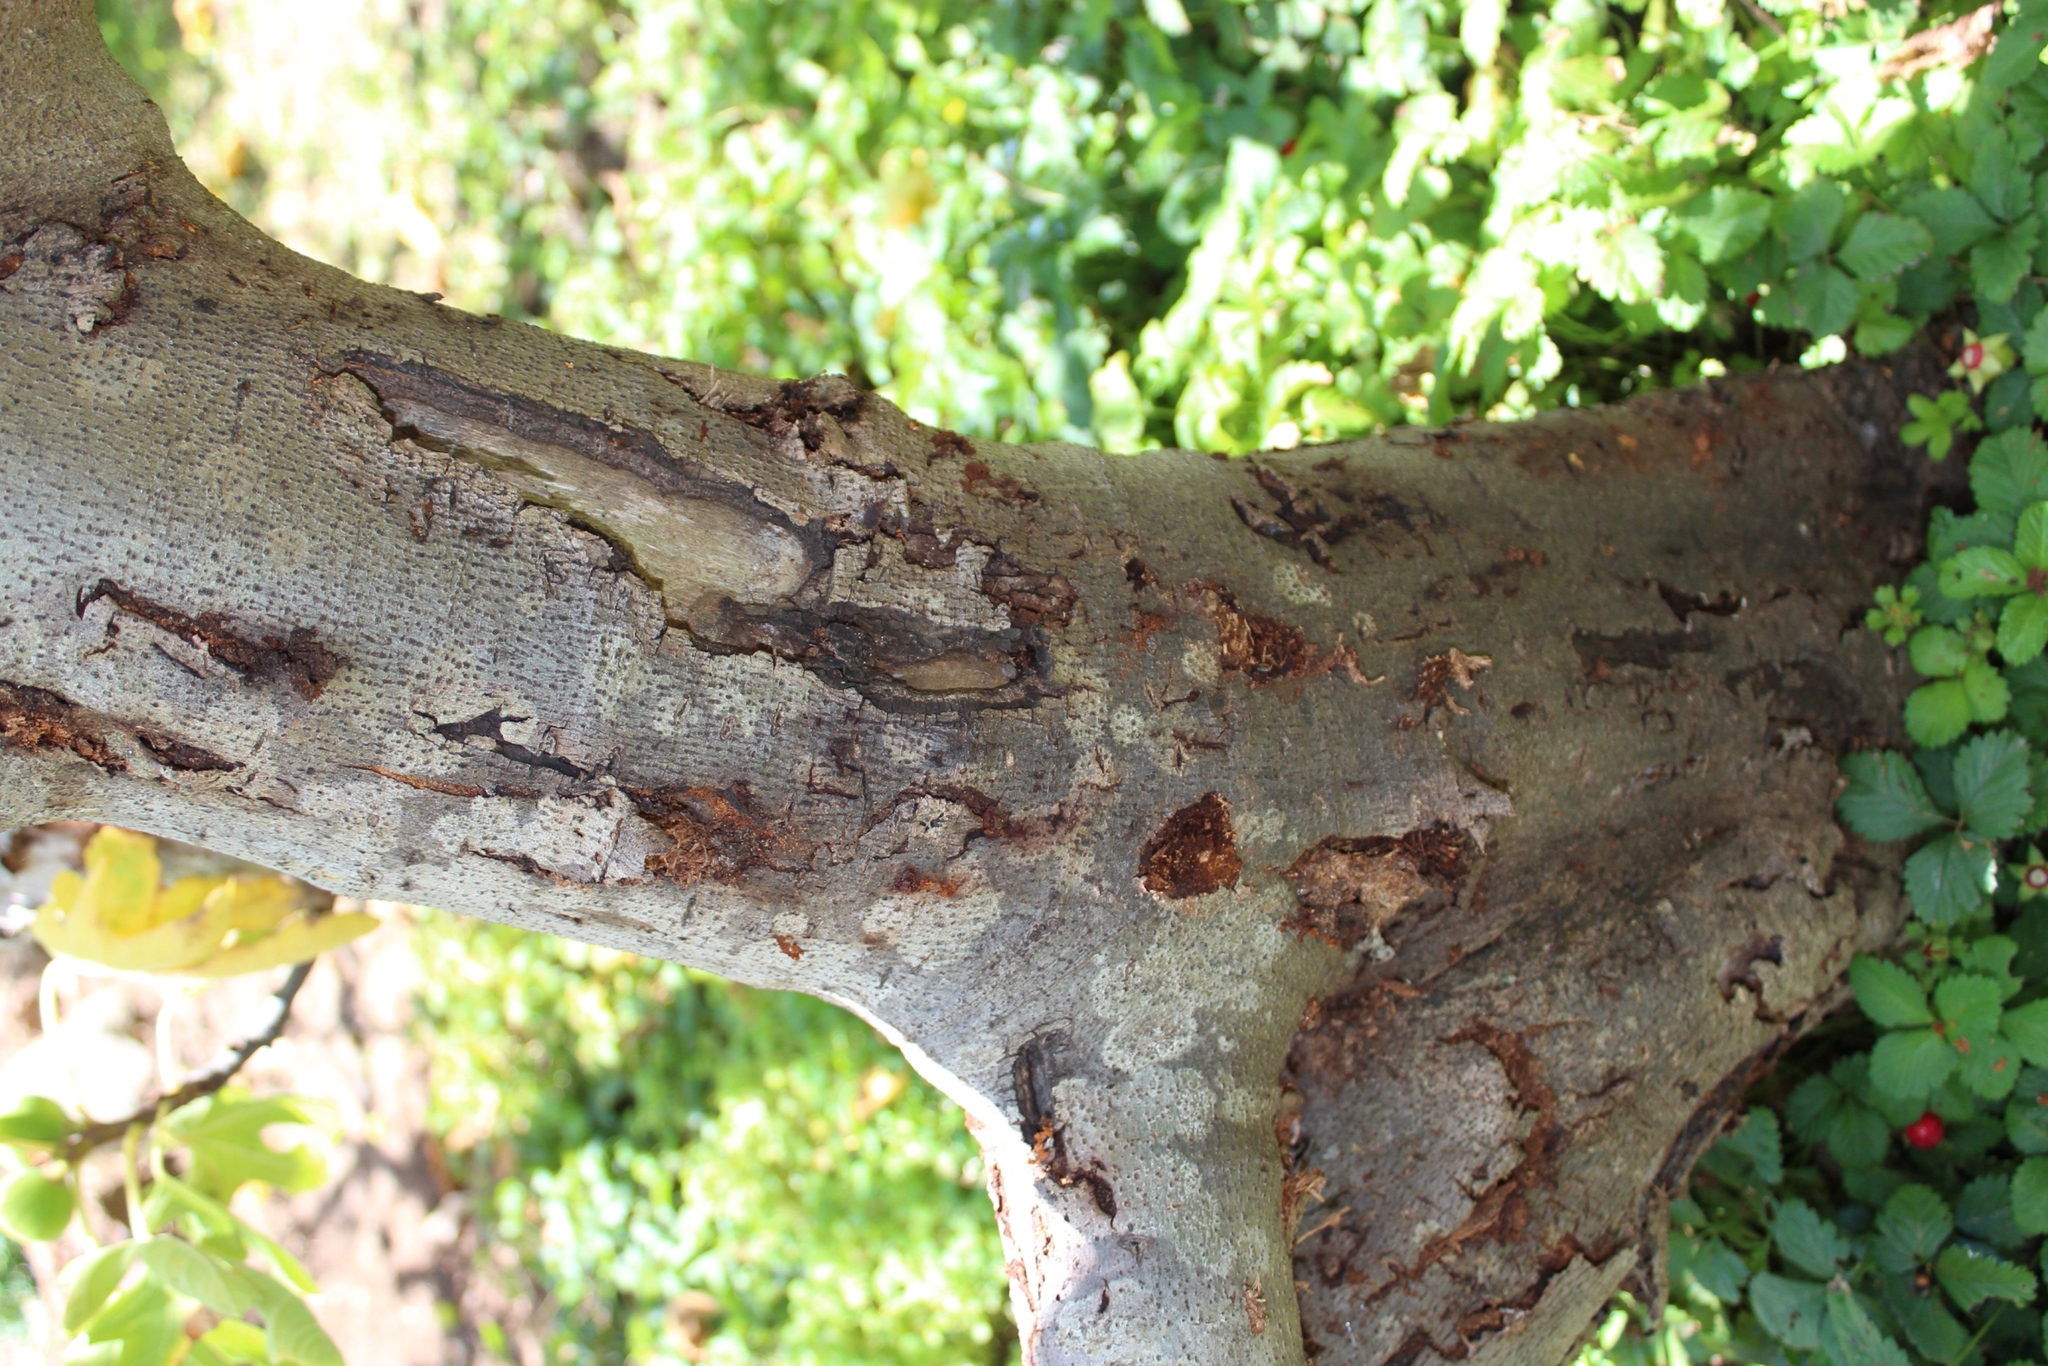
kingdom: Animalia
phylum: Arthropoda
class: Insecta
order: Coleoptera
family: Cerambycidae
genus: Phryneta
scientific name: Phryneta spinator
